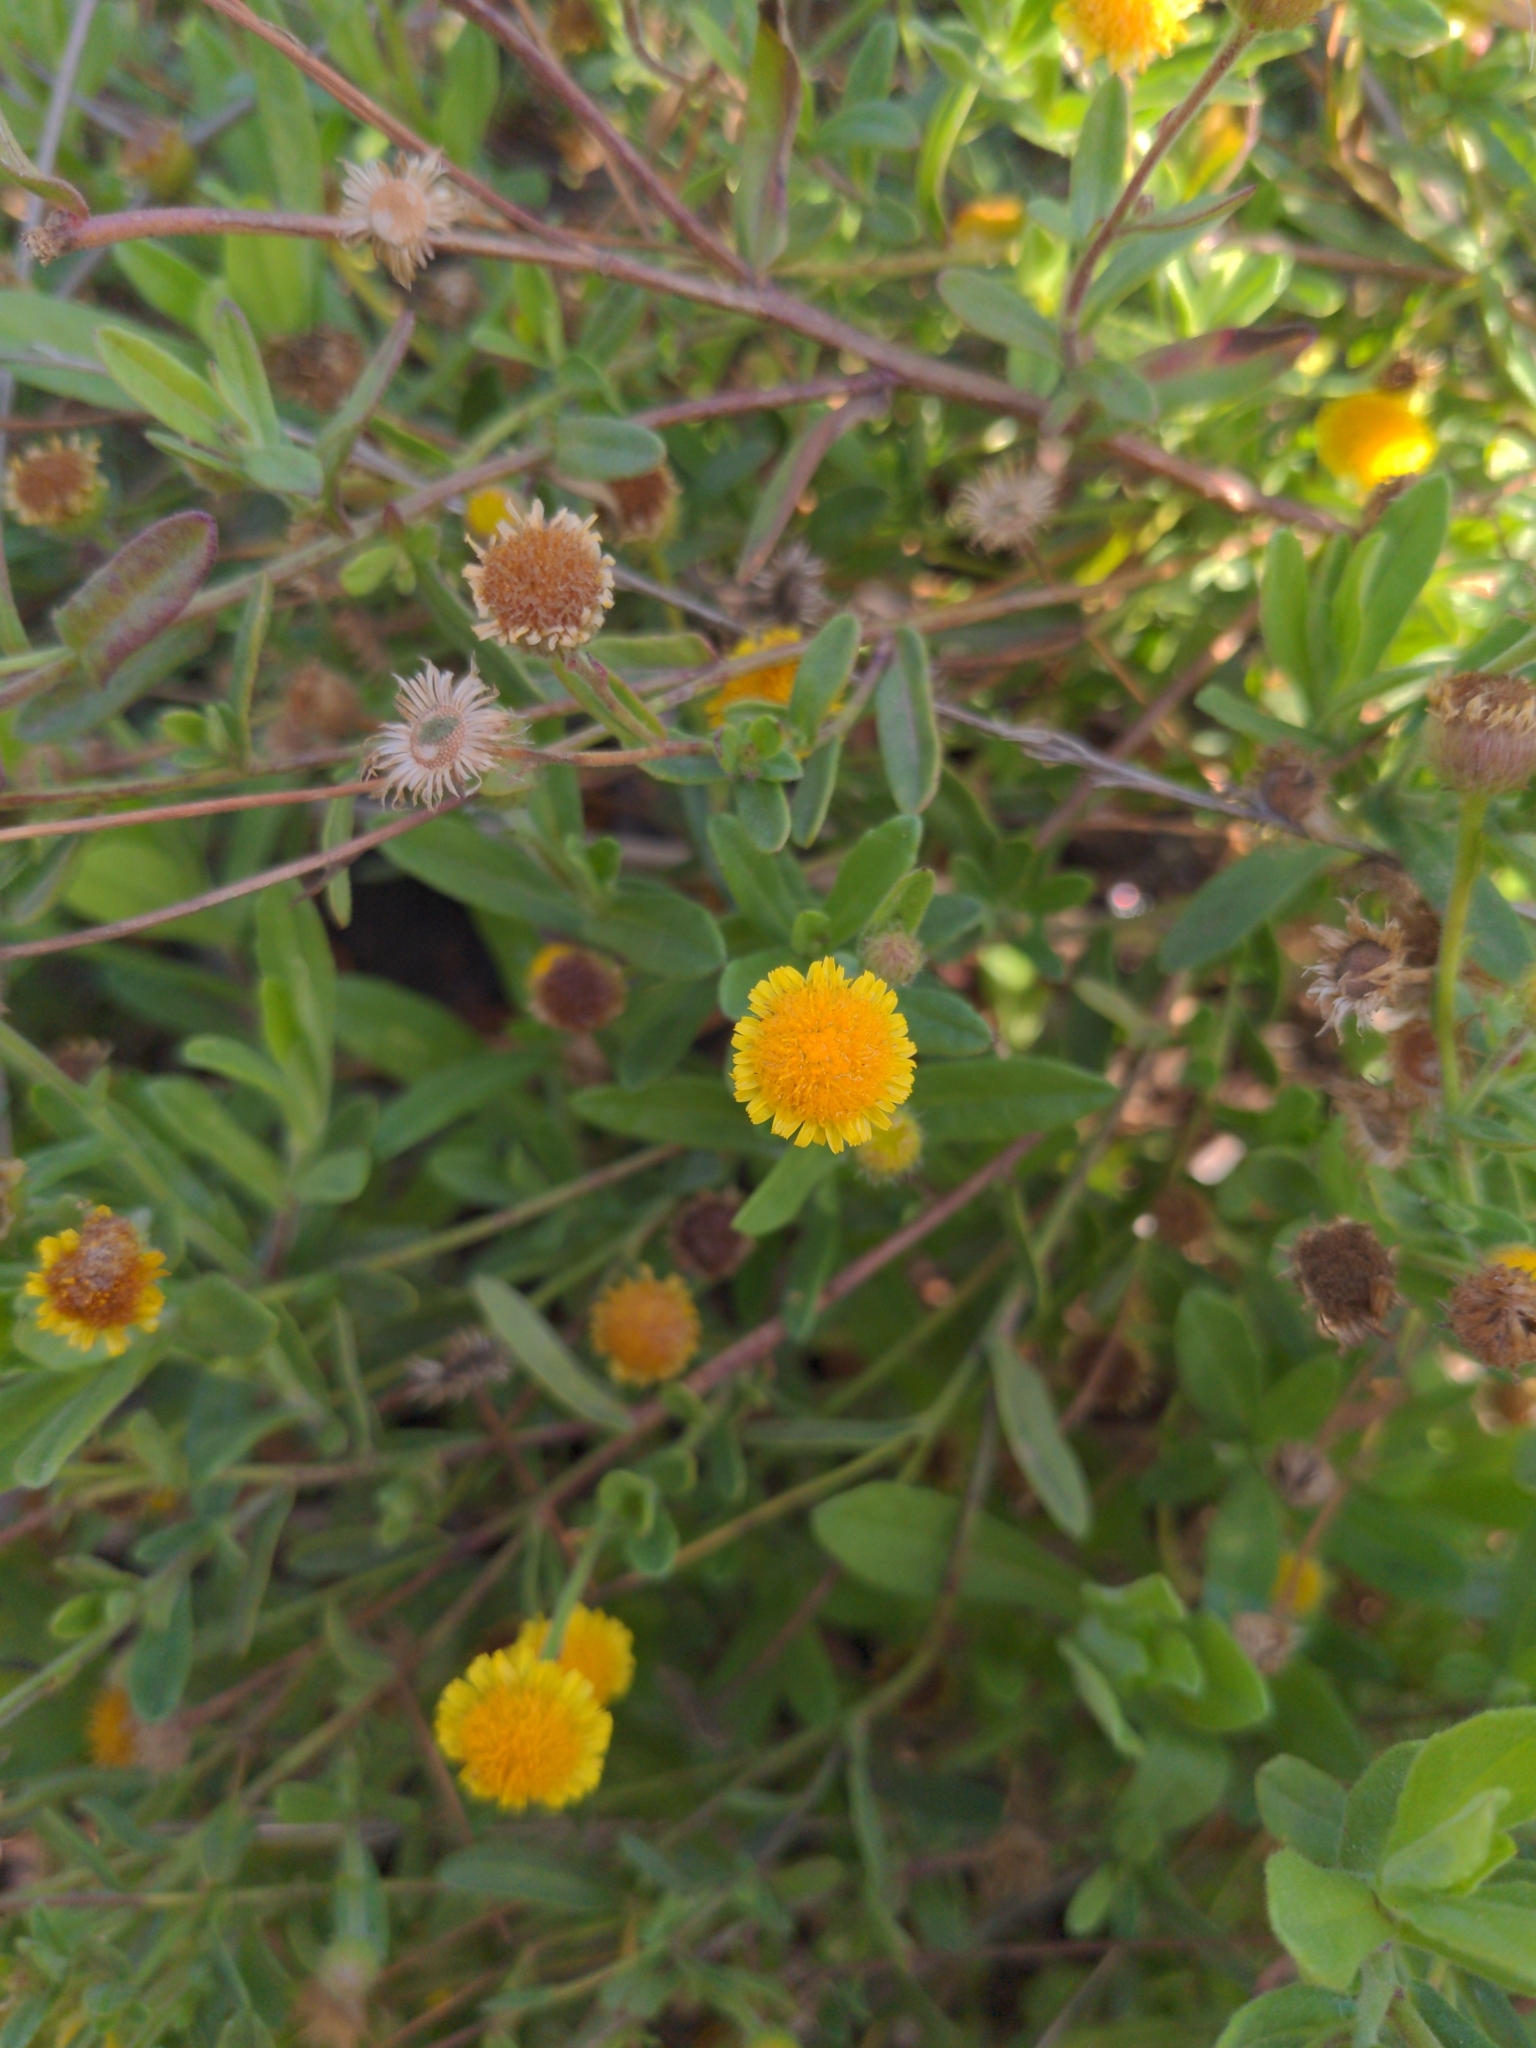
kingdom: Plantae
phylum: Tracheophyta
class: Magnoliopsida
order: Asterales
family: Asteraceae
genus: Pulicaria
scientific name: Pulicaria paludosa
